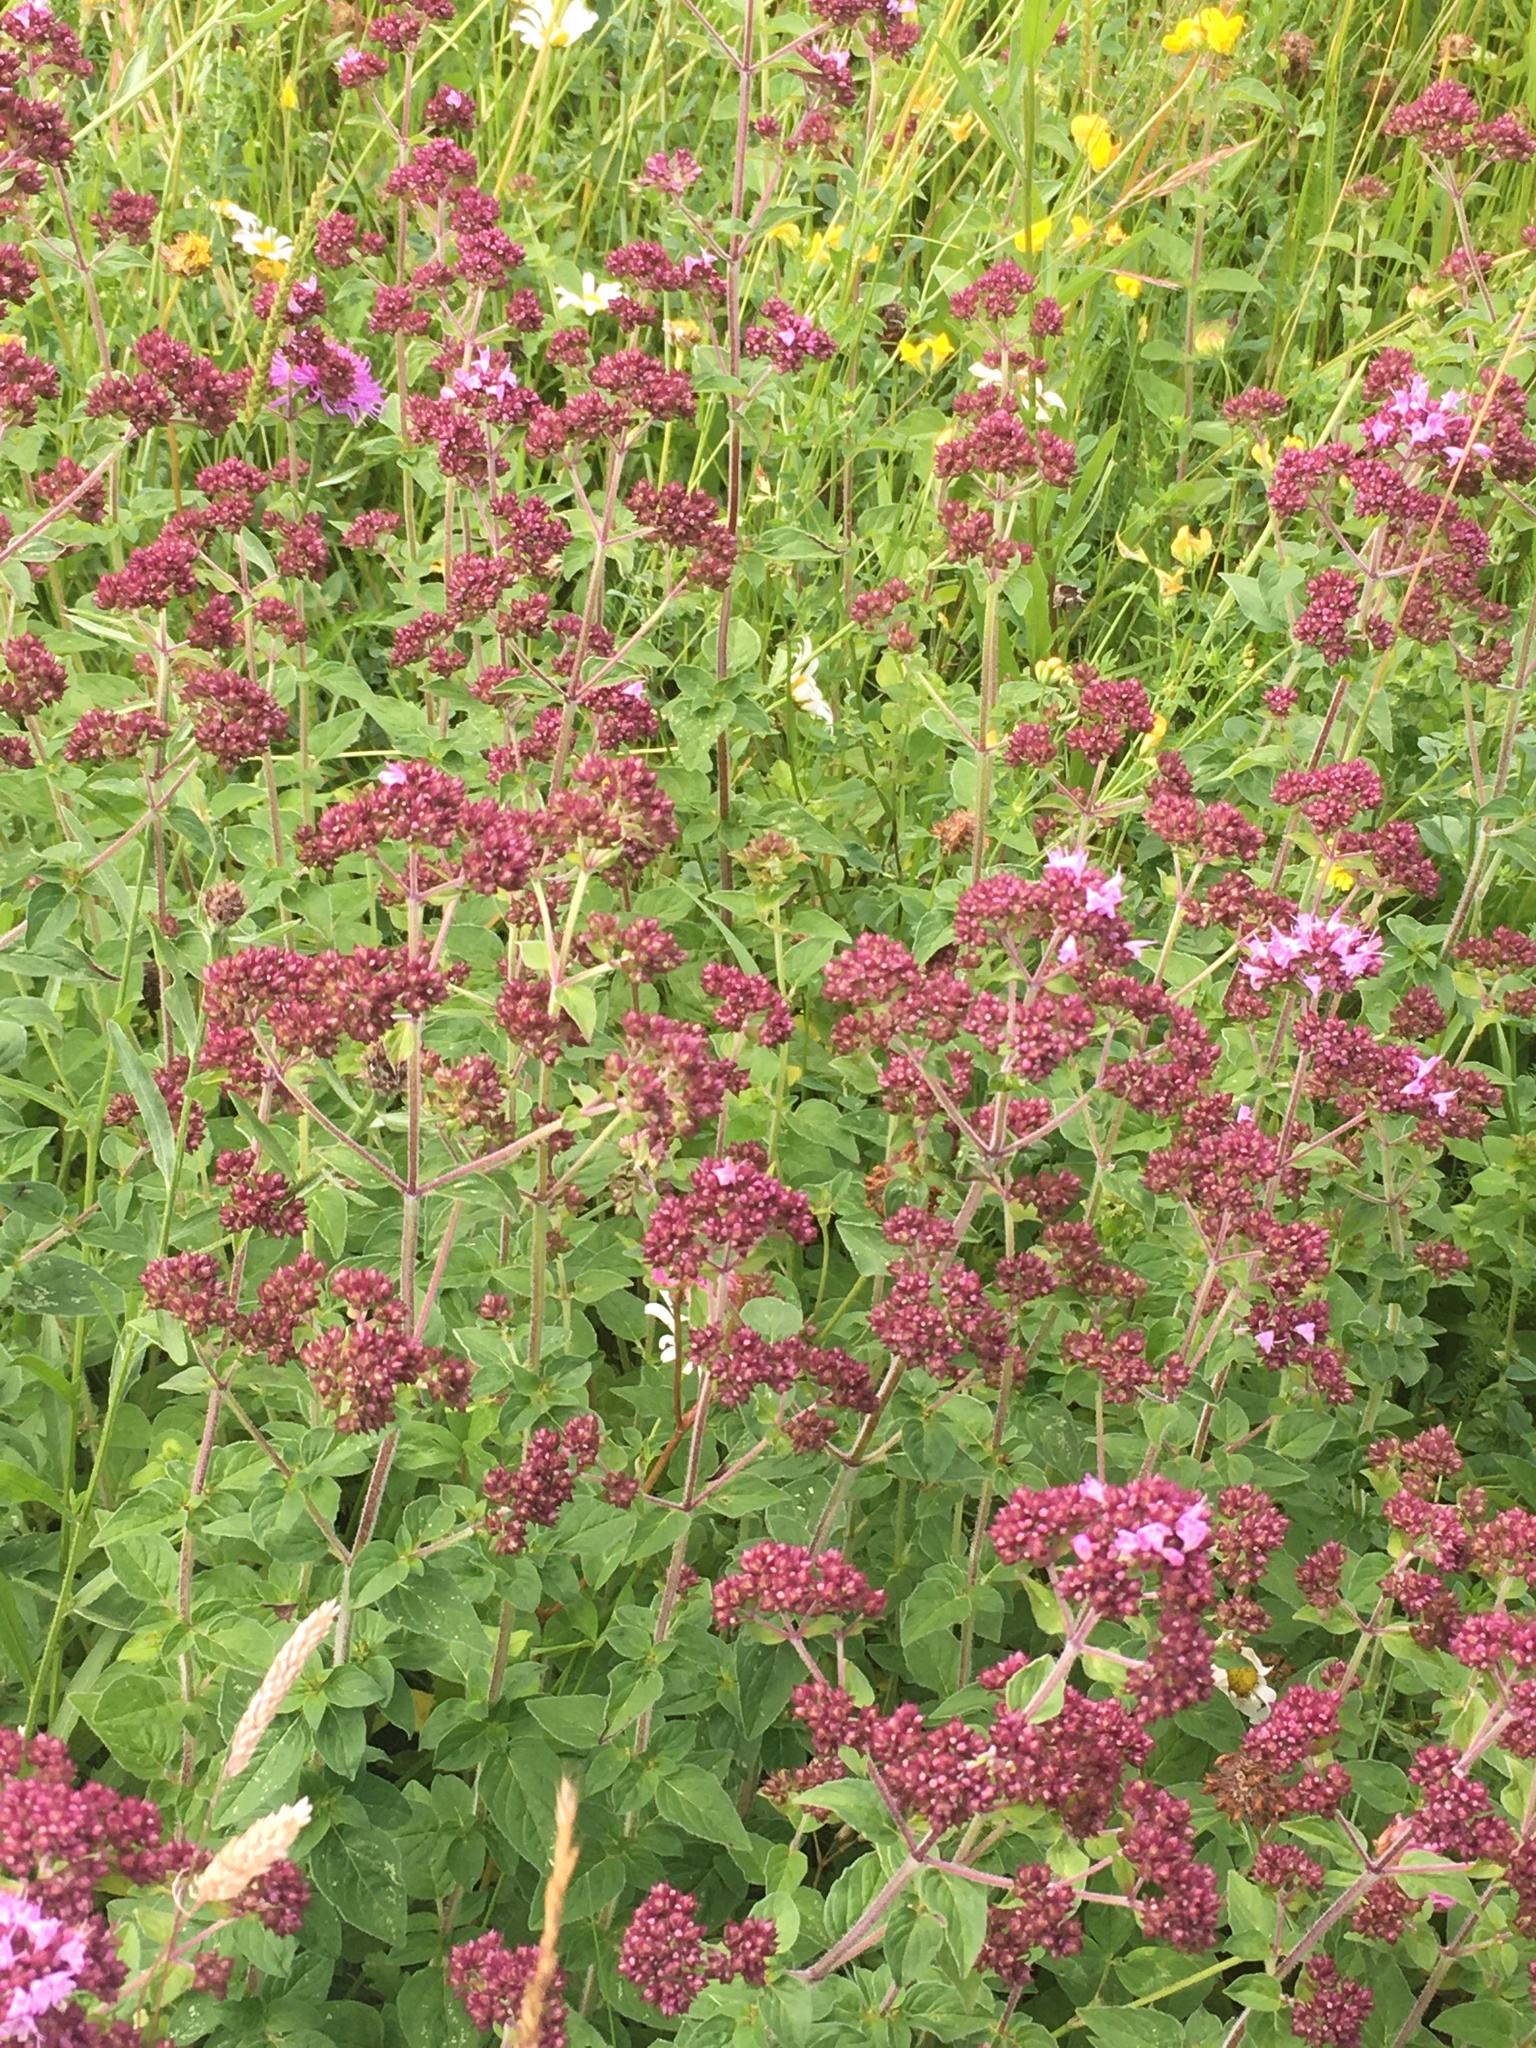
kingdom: Plantae
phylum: Tracheophyta
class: Magnoliopsida
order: Lamiales
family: Lamiaceae
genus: Origanum
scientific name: Origanum vulgare
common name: Wild marjoram
